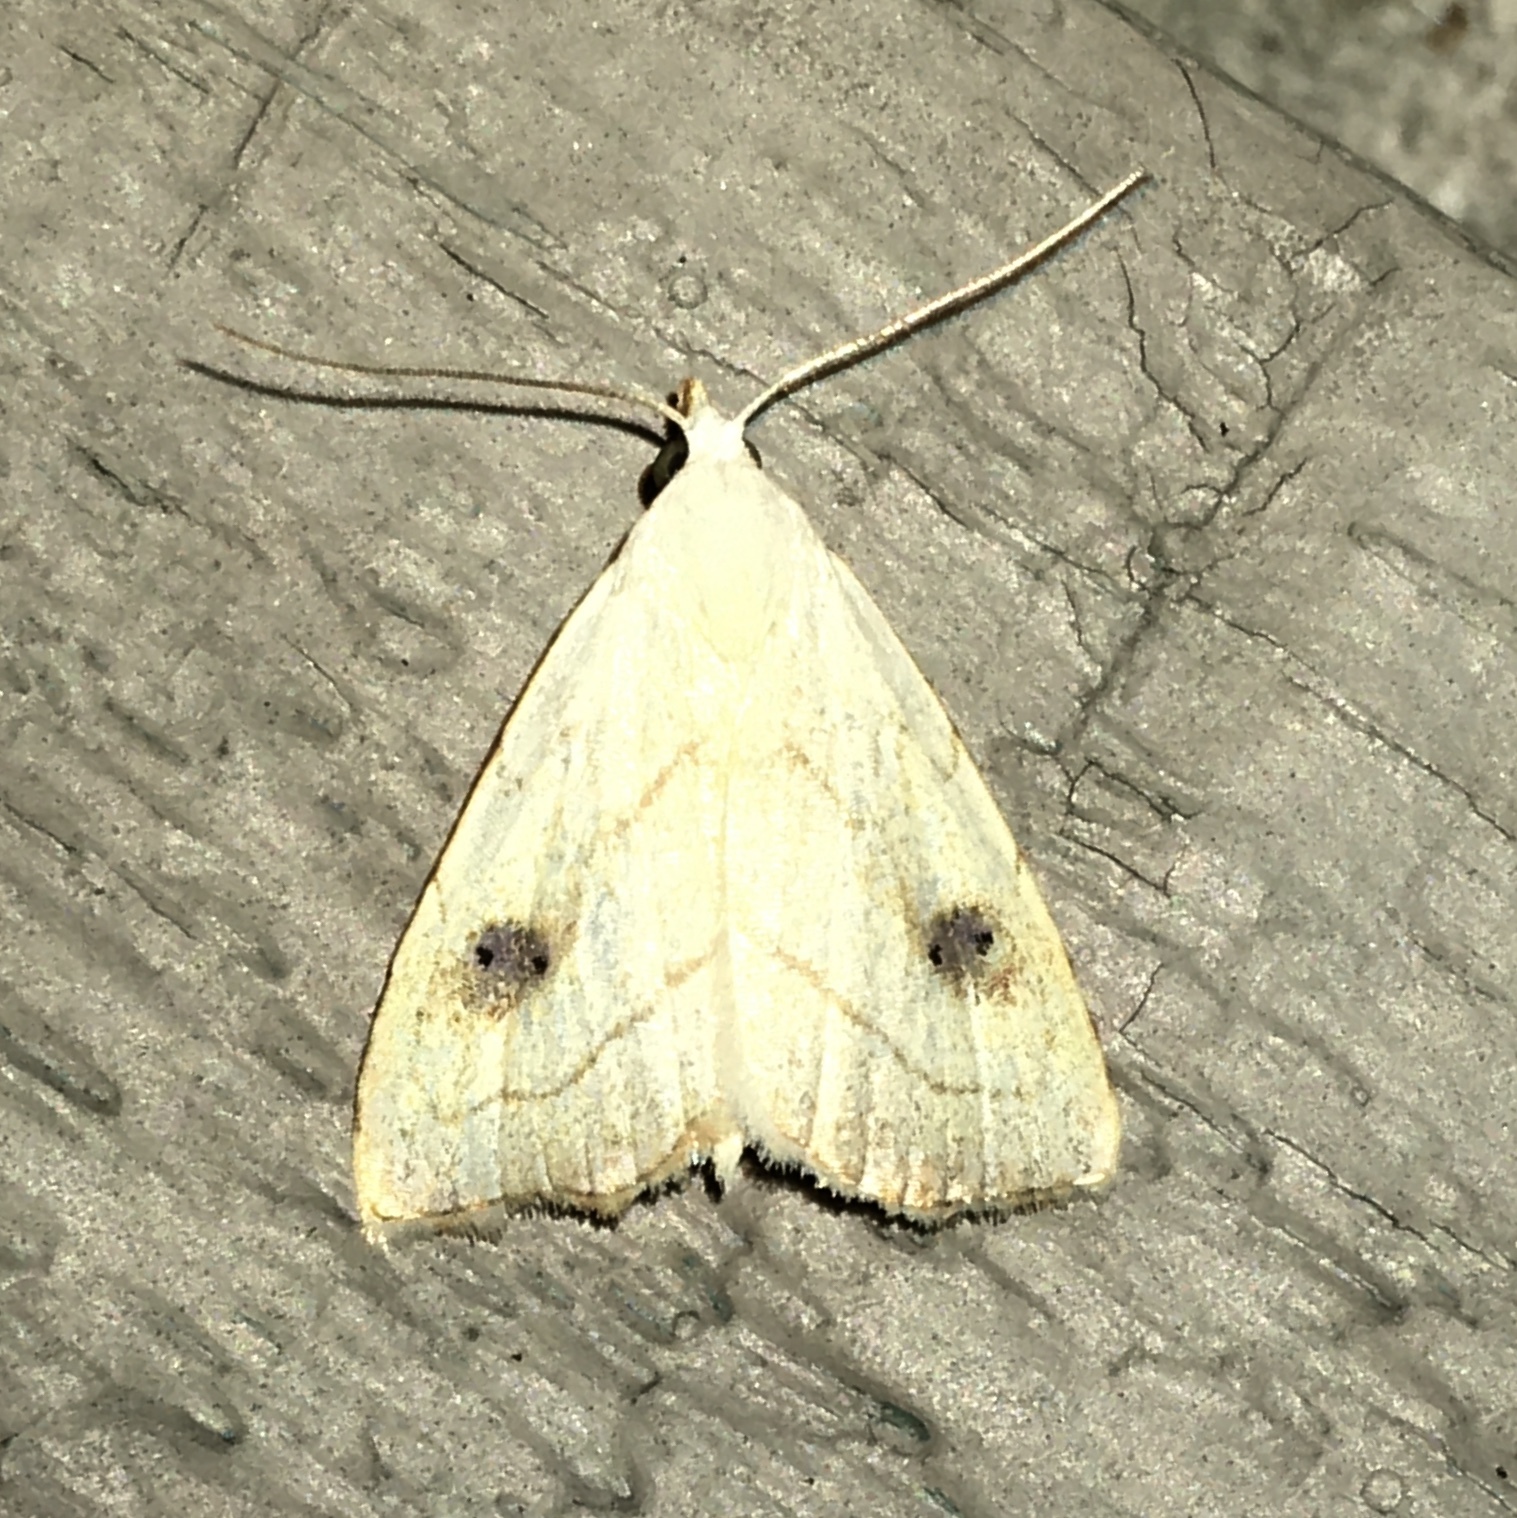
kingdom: Animalia
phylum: Arthropoda
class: Insecta
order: Lepidoptera
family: Erebidae
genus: Rivula
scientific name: Rivula propinqualis
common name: Spotted grass moth
